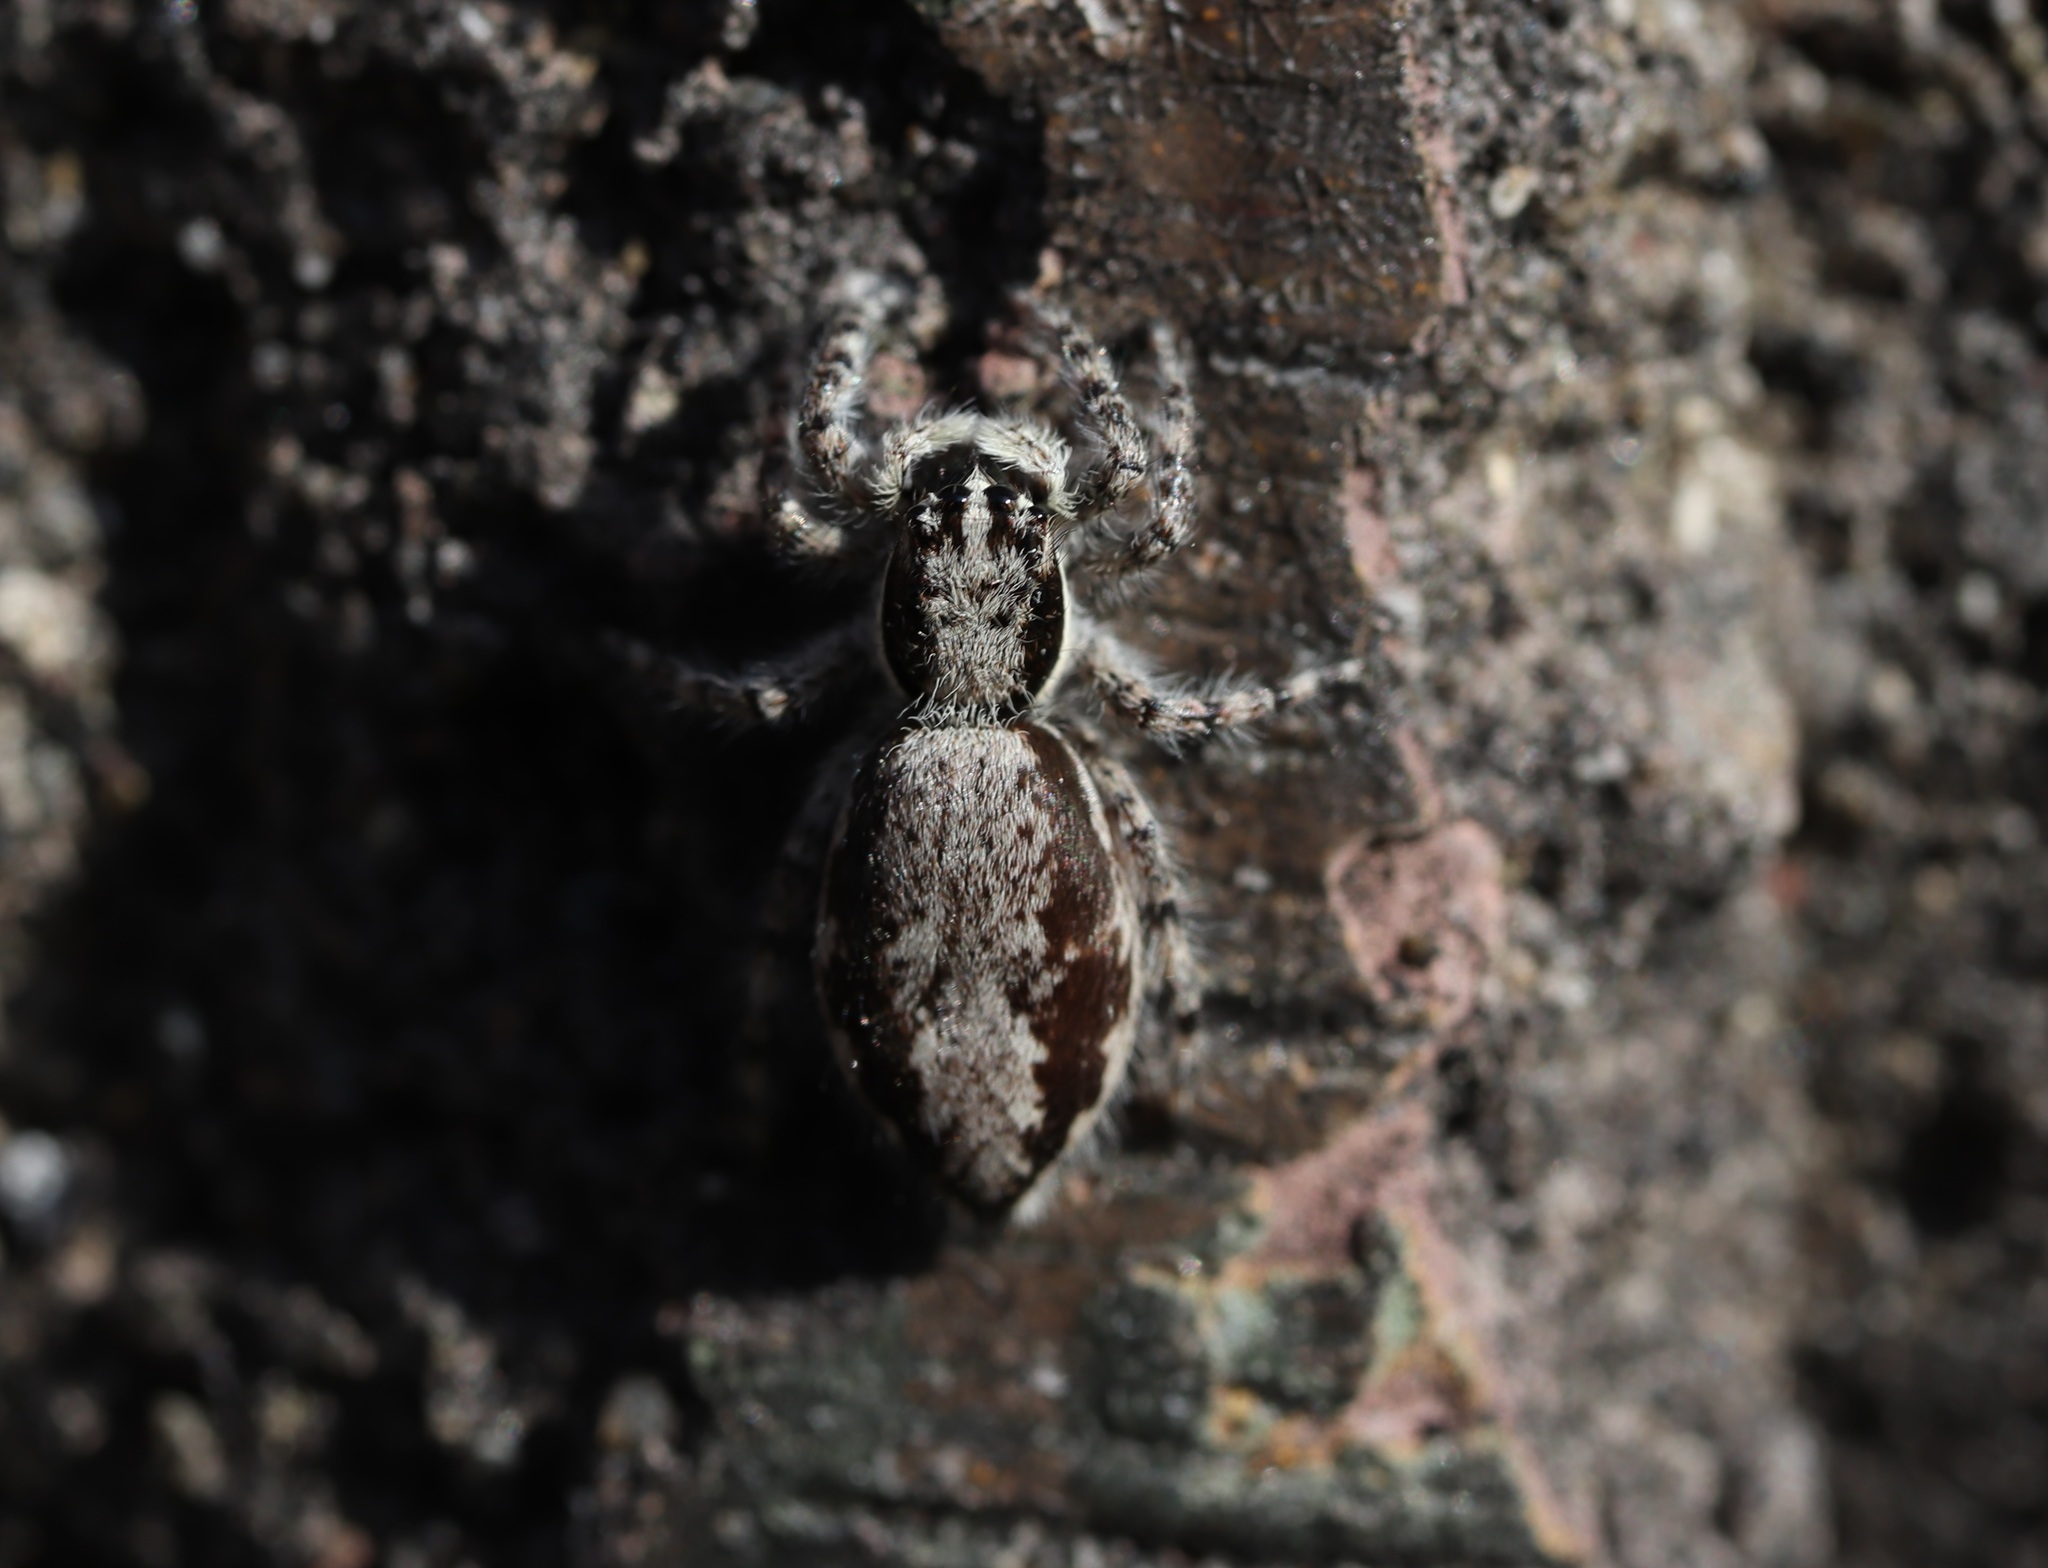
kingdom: Animalia
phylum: Arthropoda
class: Arachnida
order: Araneae
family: Salticidae
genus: Menemerus
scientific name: Menemerus fulvus
